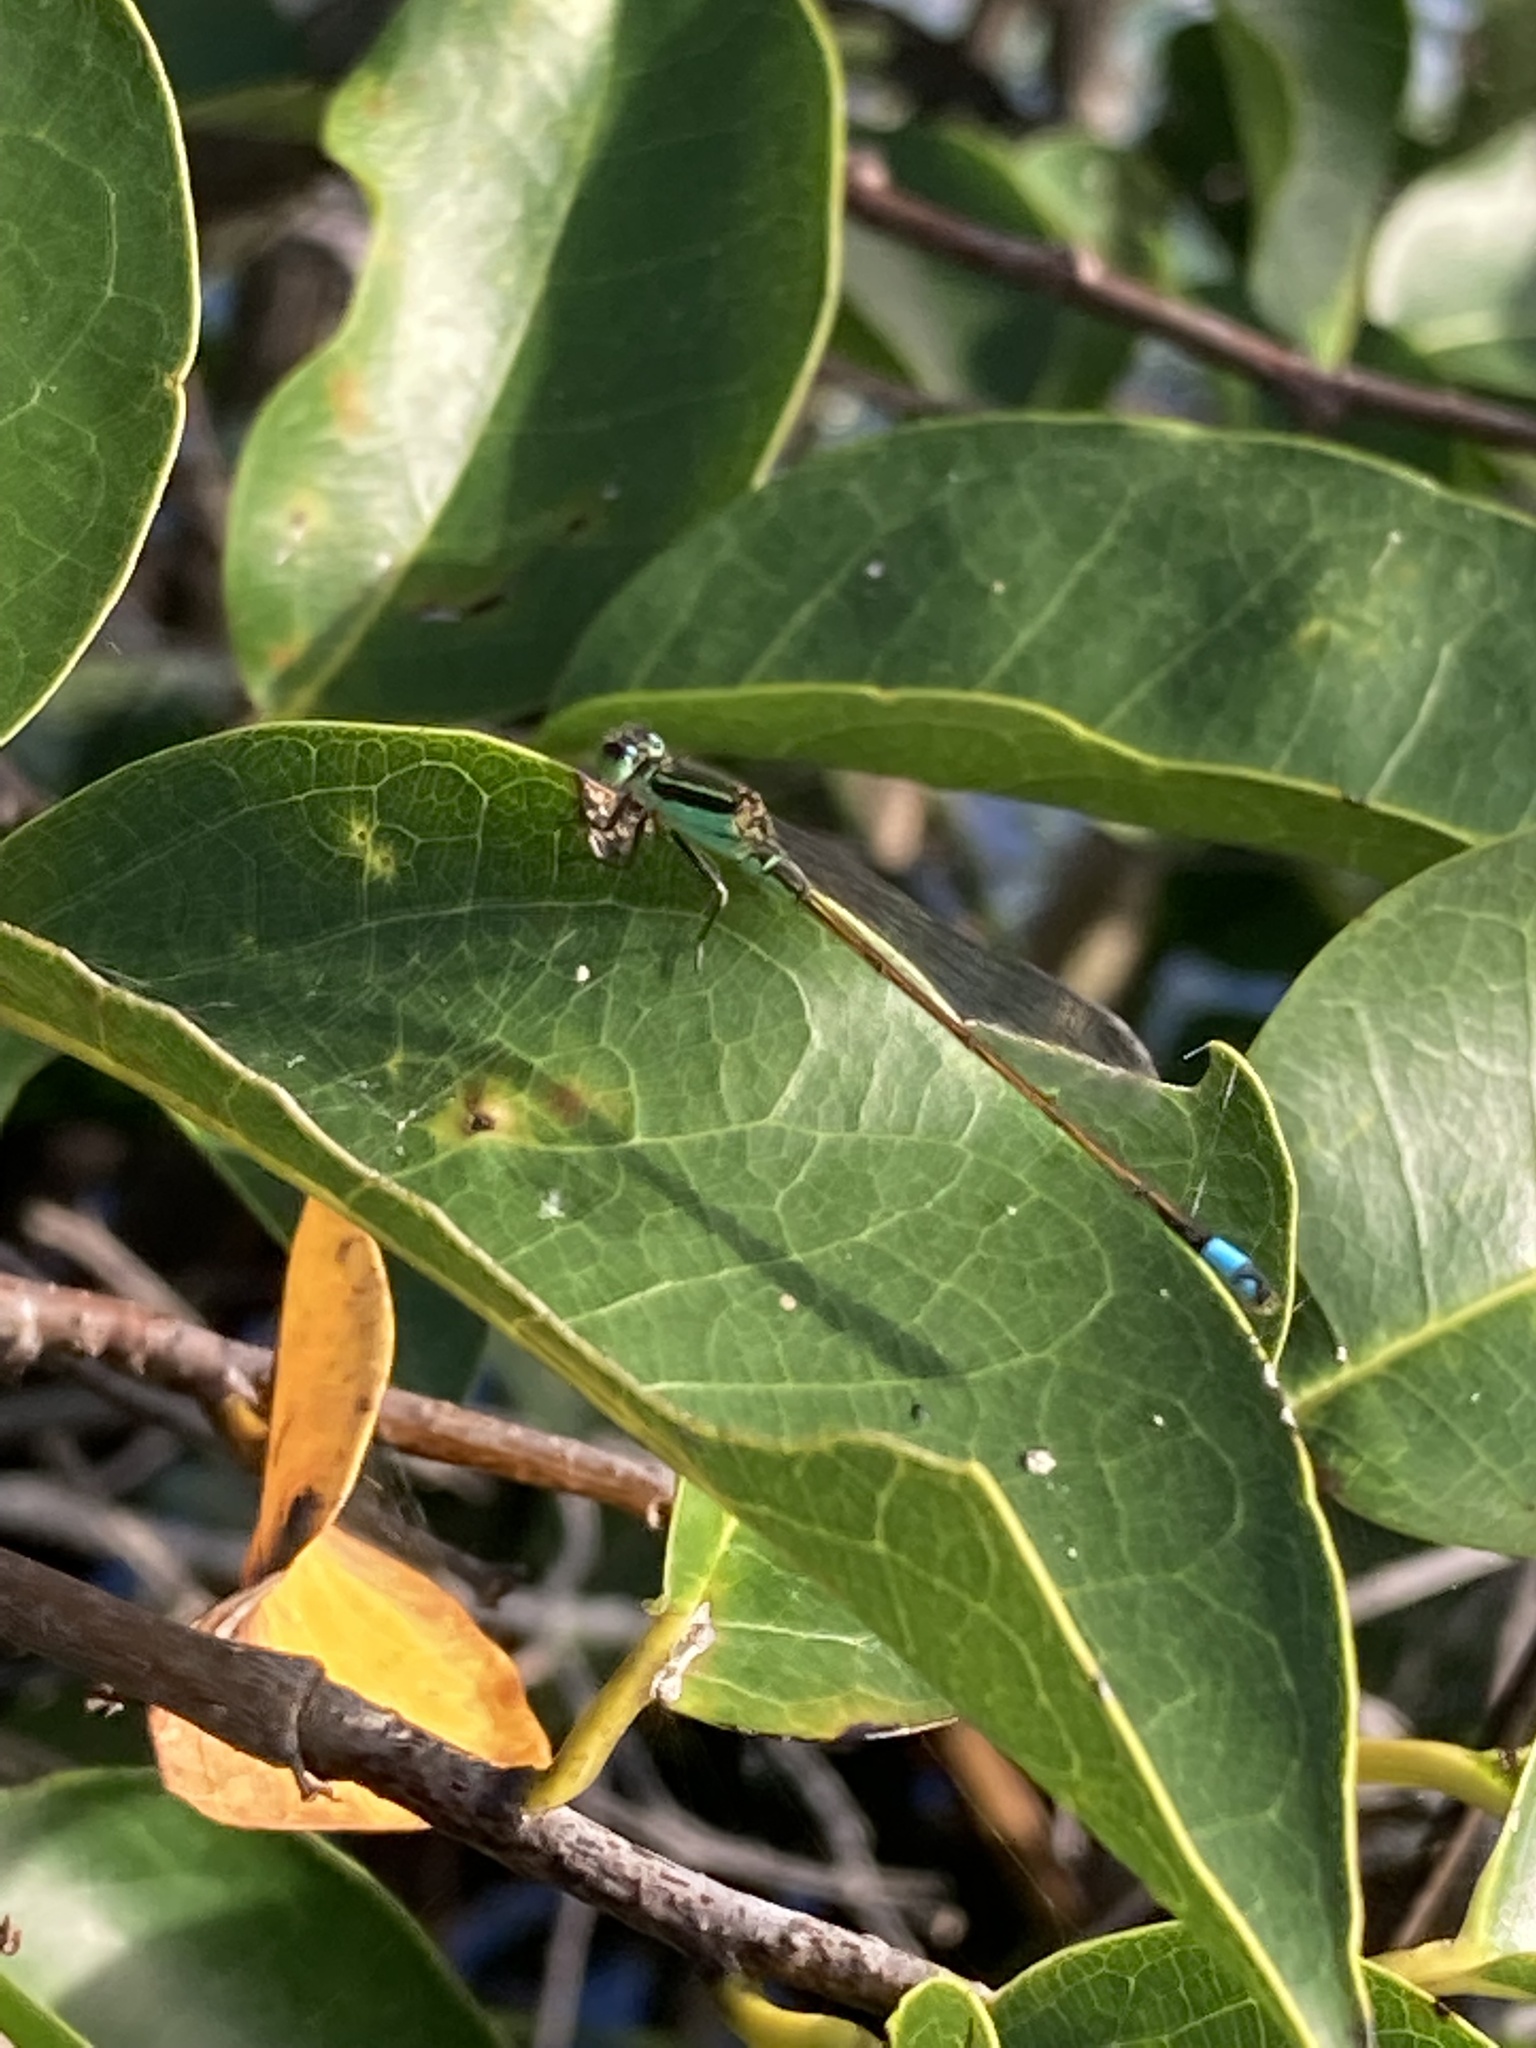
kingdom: Animalia
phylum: Arthropoda
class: Insecta
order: Odonata
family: Coenagrionidae
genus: Ischnura
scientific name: Ischnura ramburii
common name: Rambur's forktail
